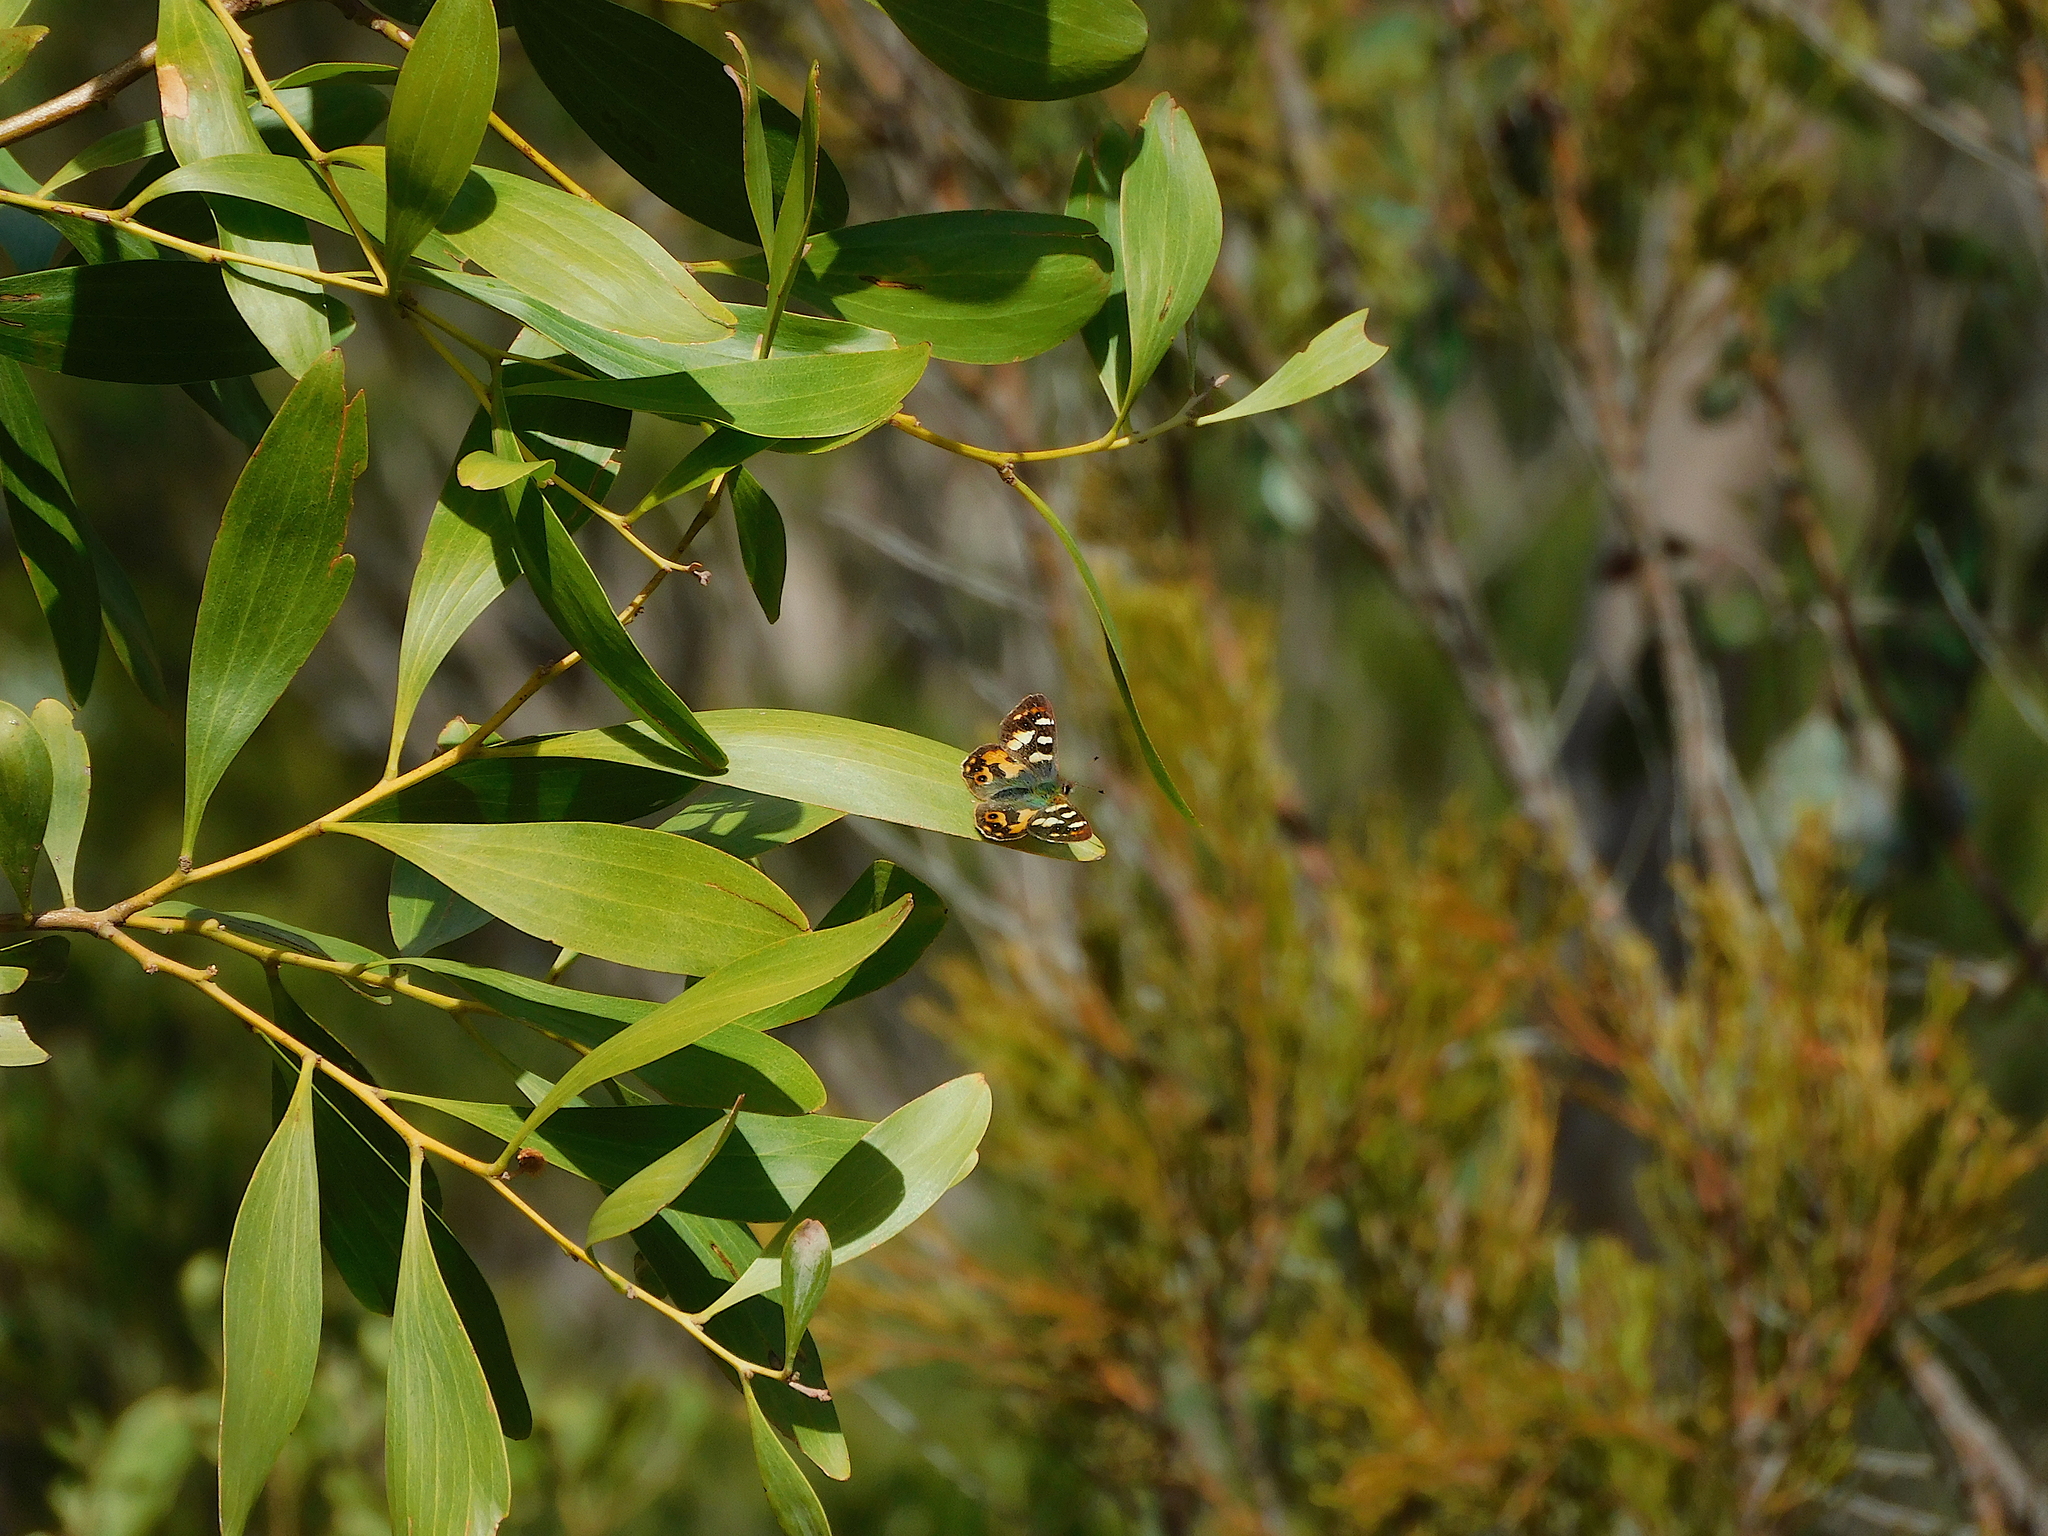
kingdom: Animalia
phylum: Arthropoda
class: Insecta
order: Lepidoptera
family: Nymphalidae
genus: Argynnina
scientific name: Argynnina hobartia
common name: Hobart brown
